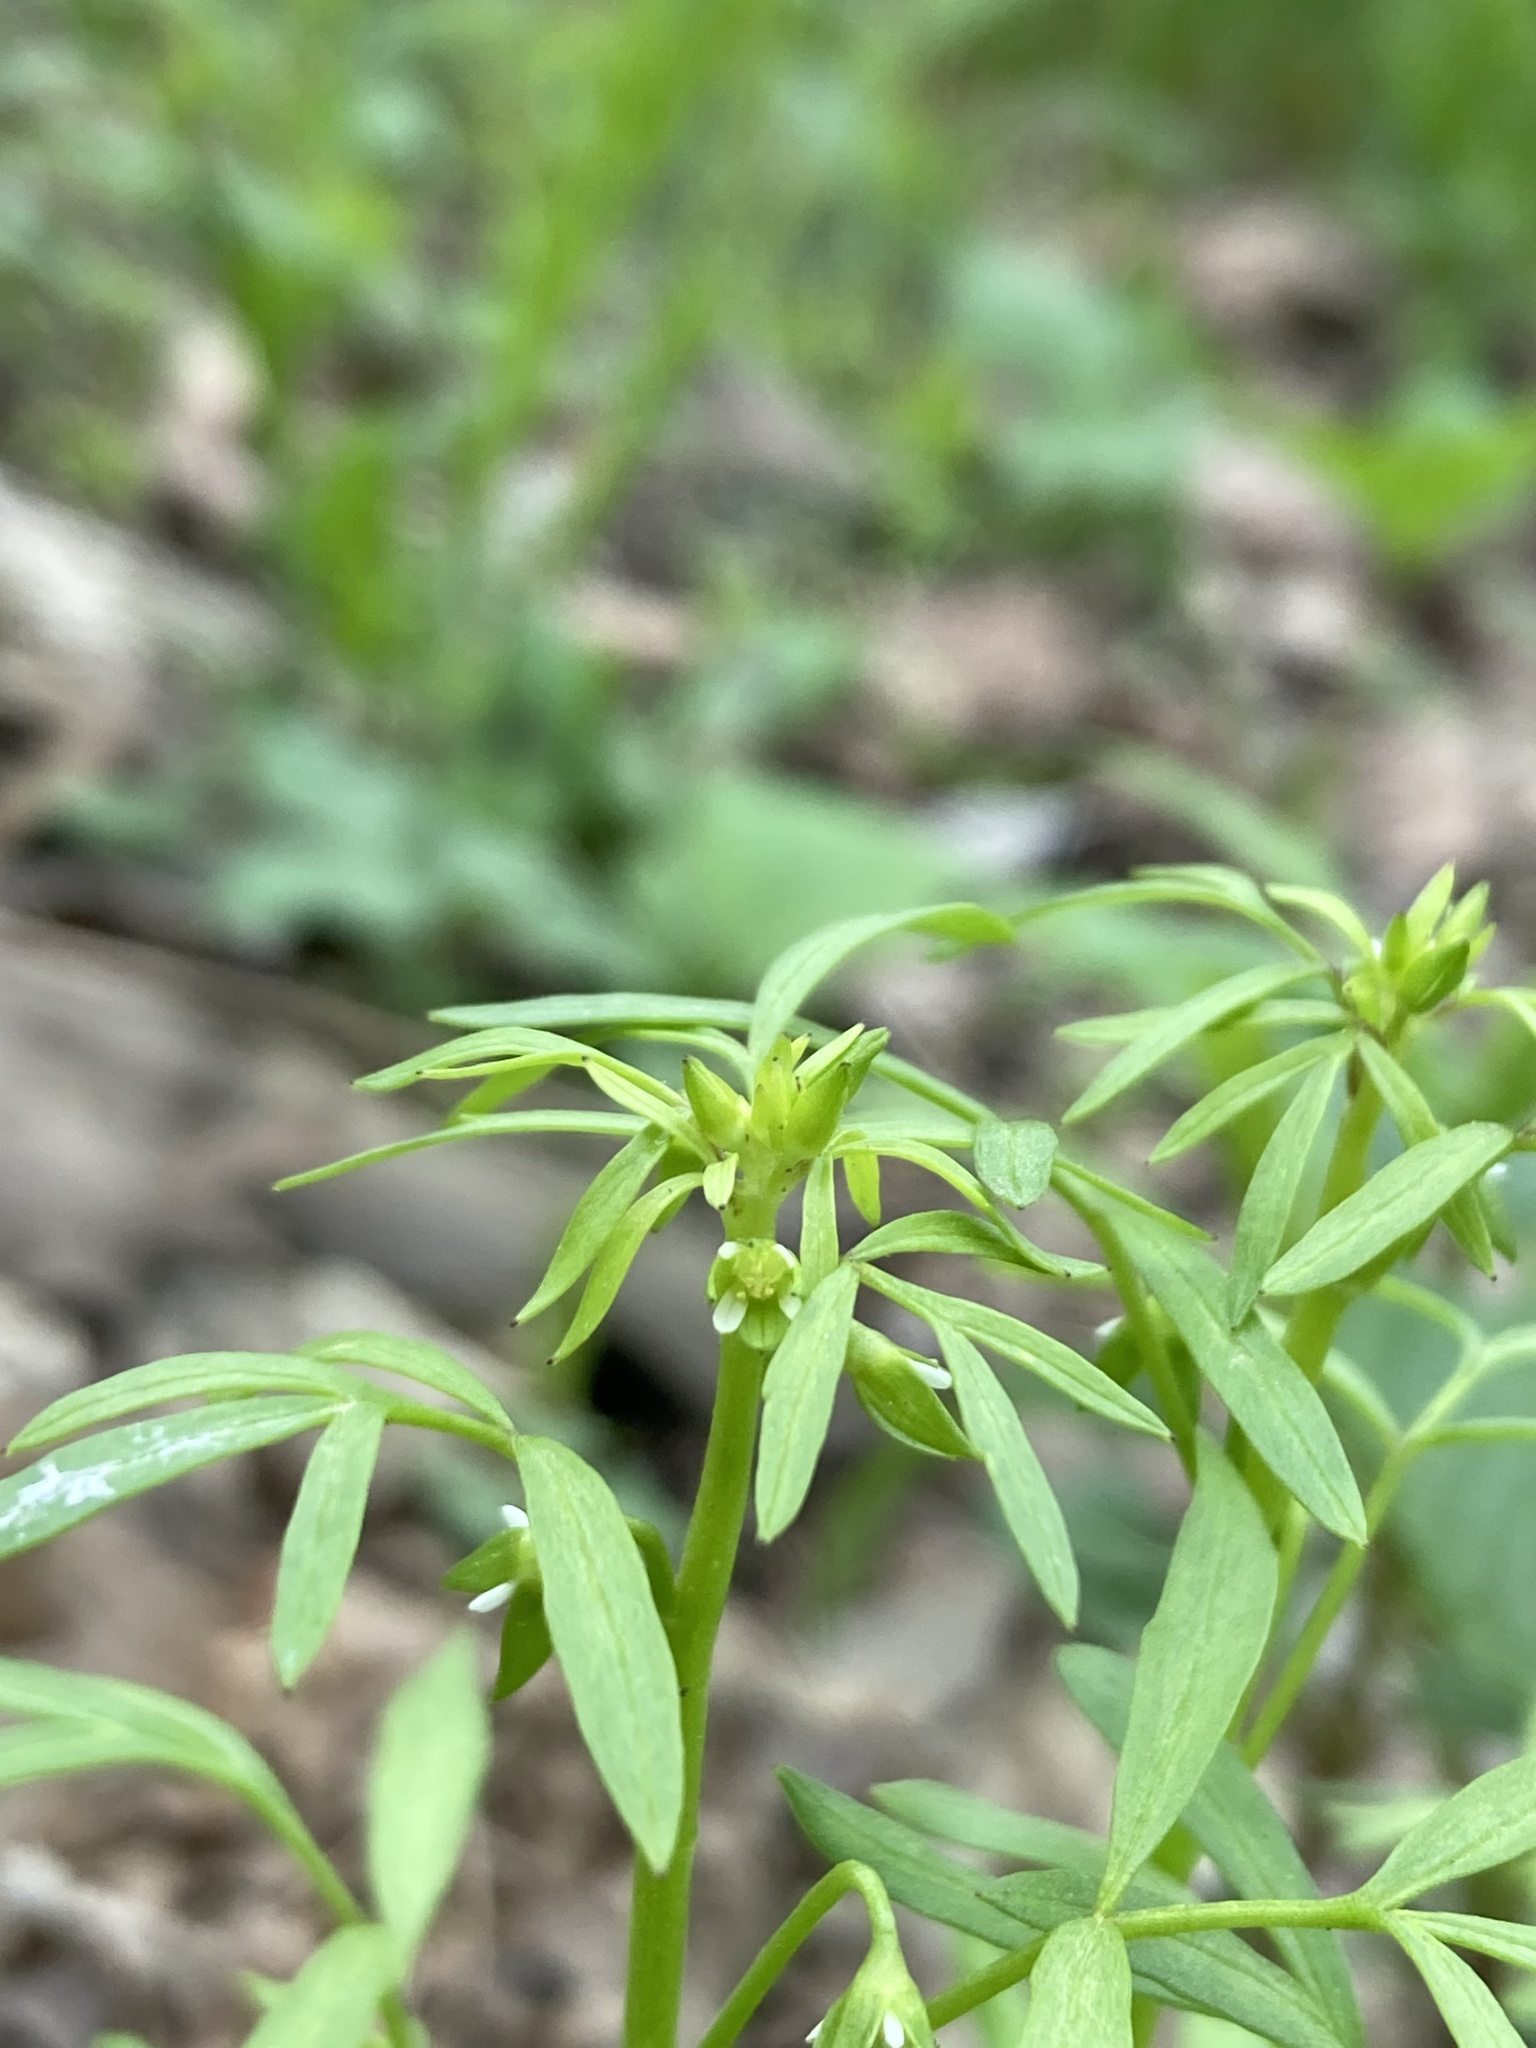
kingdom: Plantae
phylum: Tracheophyta
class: Magnoliopsida
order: Brassicales
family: Limnanthaceae
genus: Floerkea
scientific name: Floerkea proserpinacoides
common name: False mermaid
